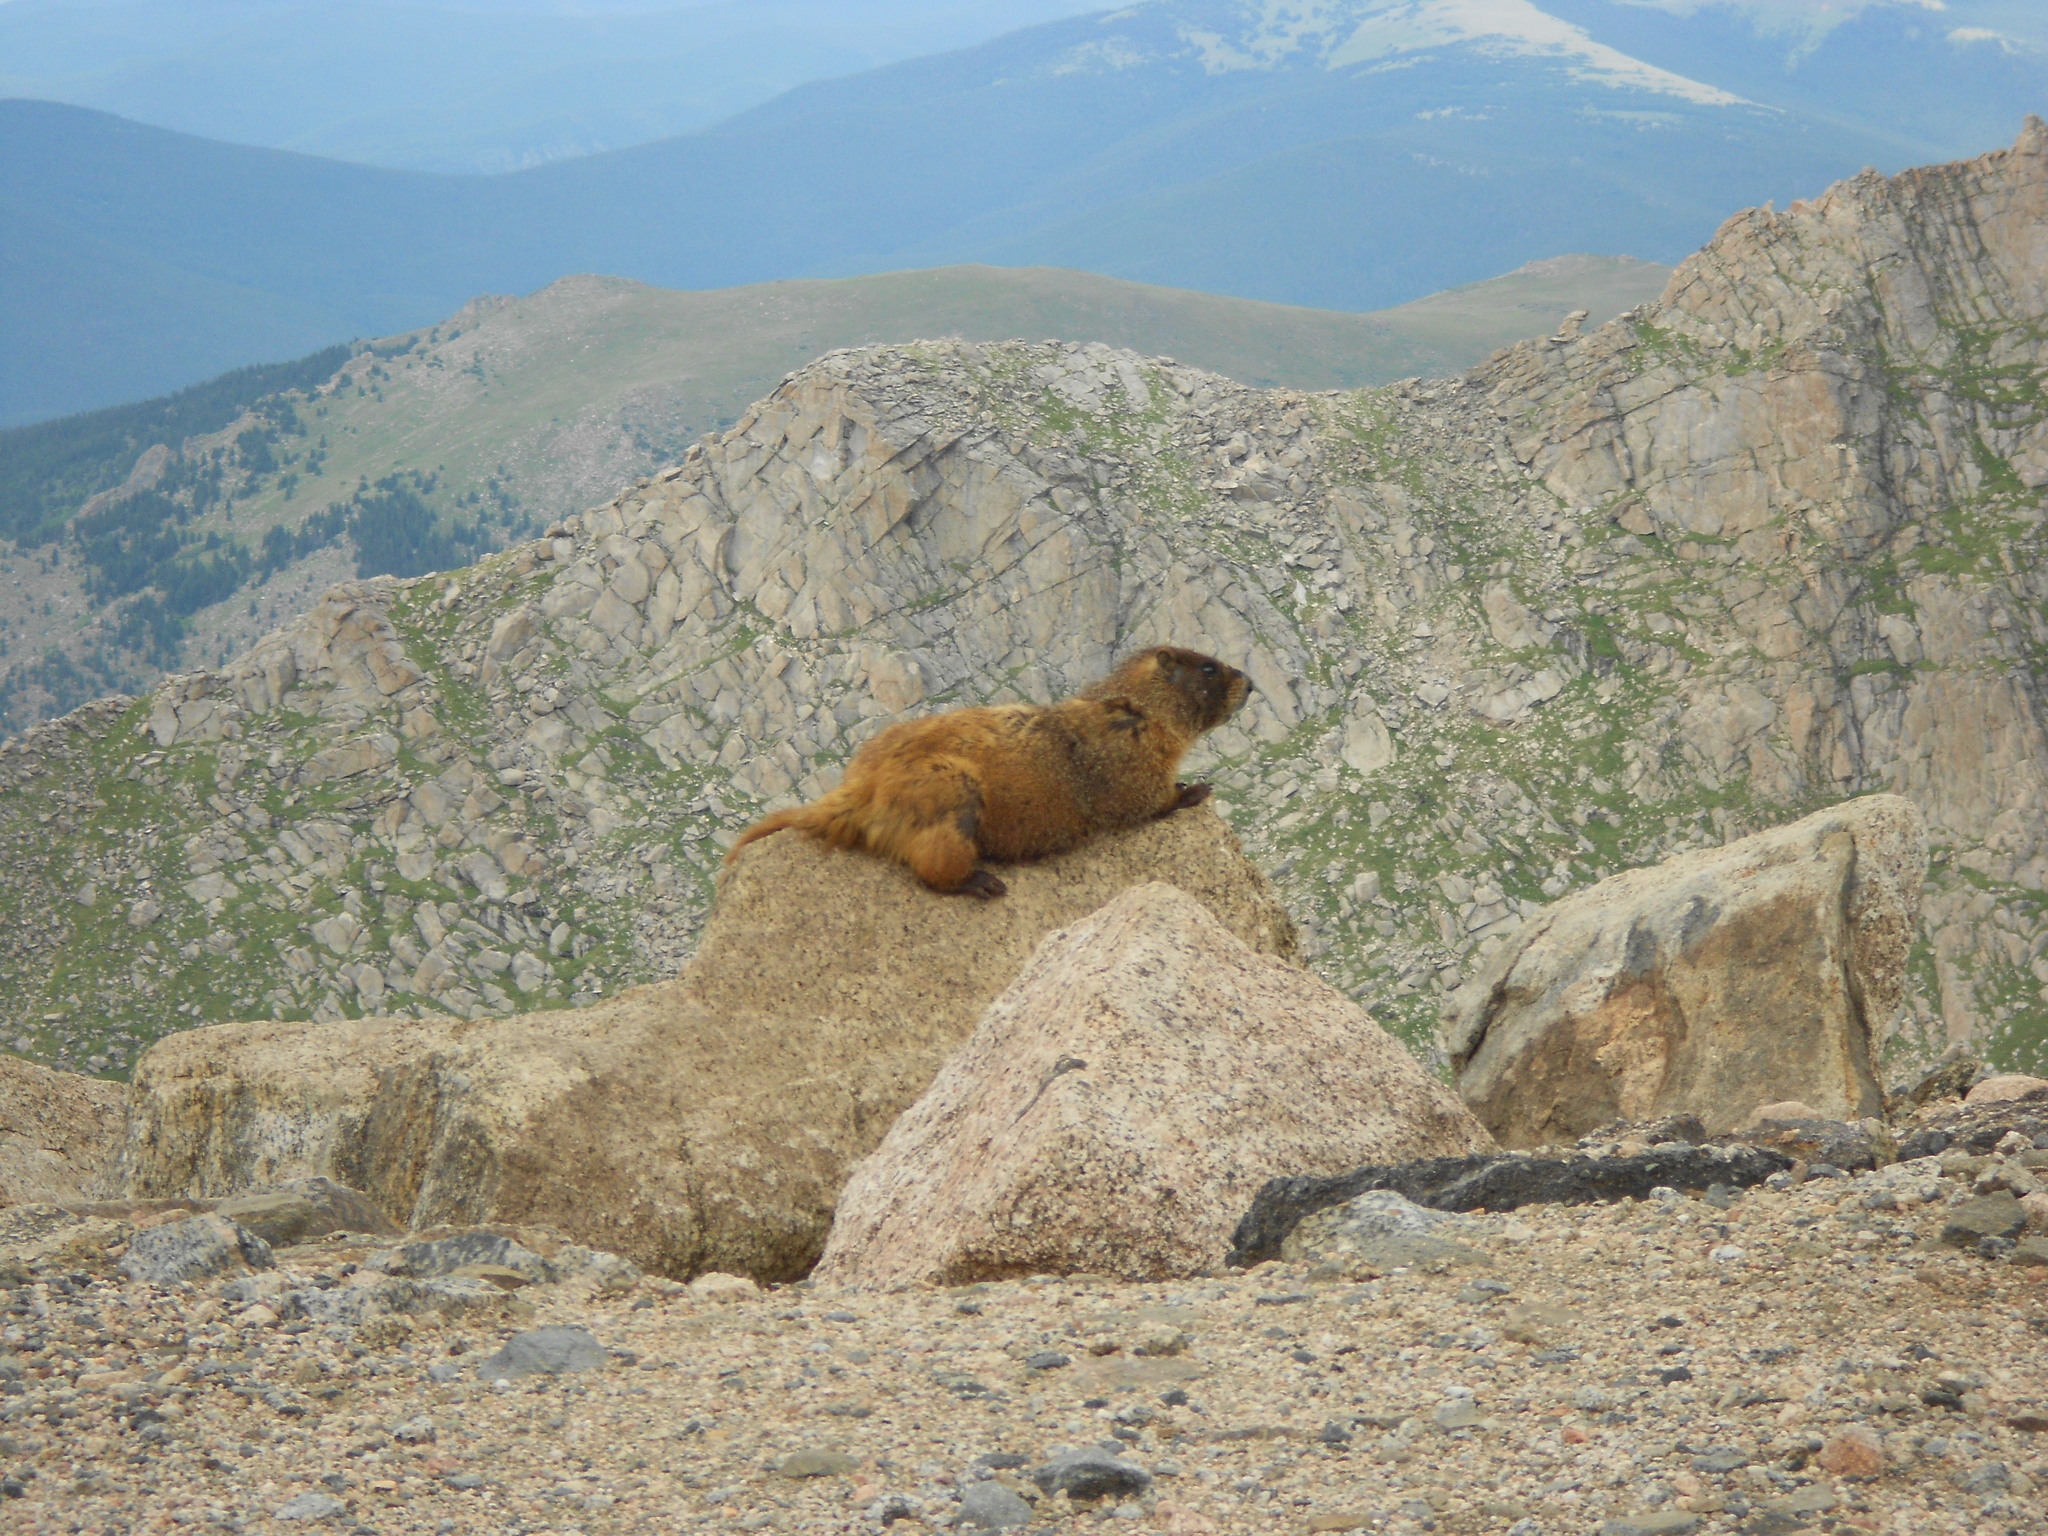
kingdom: Animalia
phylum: Chordata
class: Mammalia
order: Rodentia
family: Sciuridae
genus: Marmota
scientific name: Marmota flaviventris
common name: Yellow-bellied marmot
